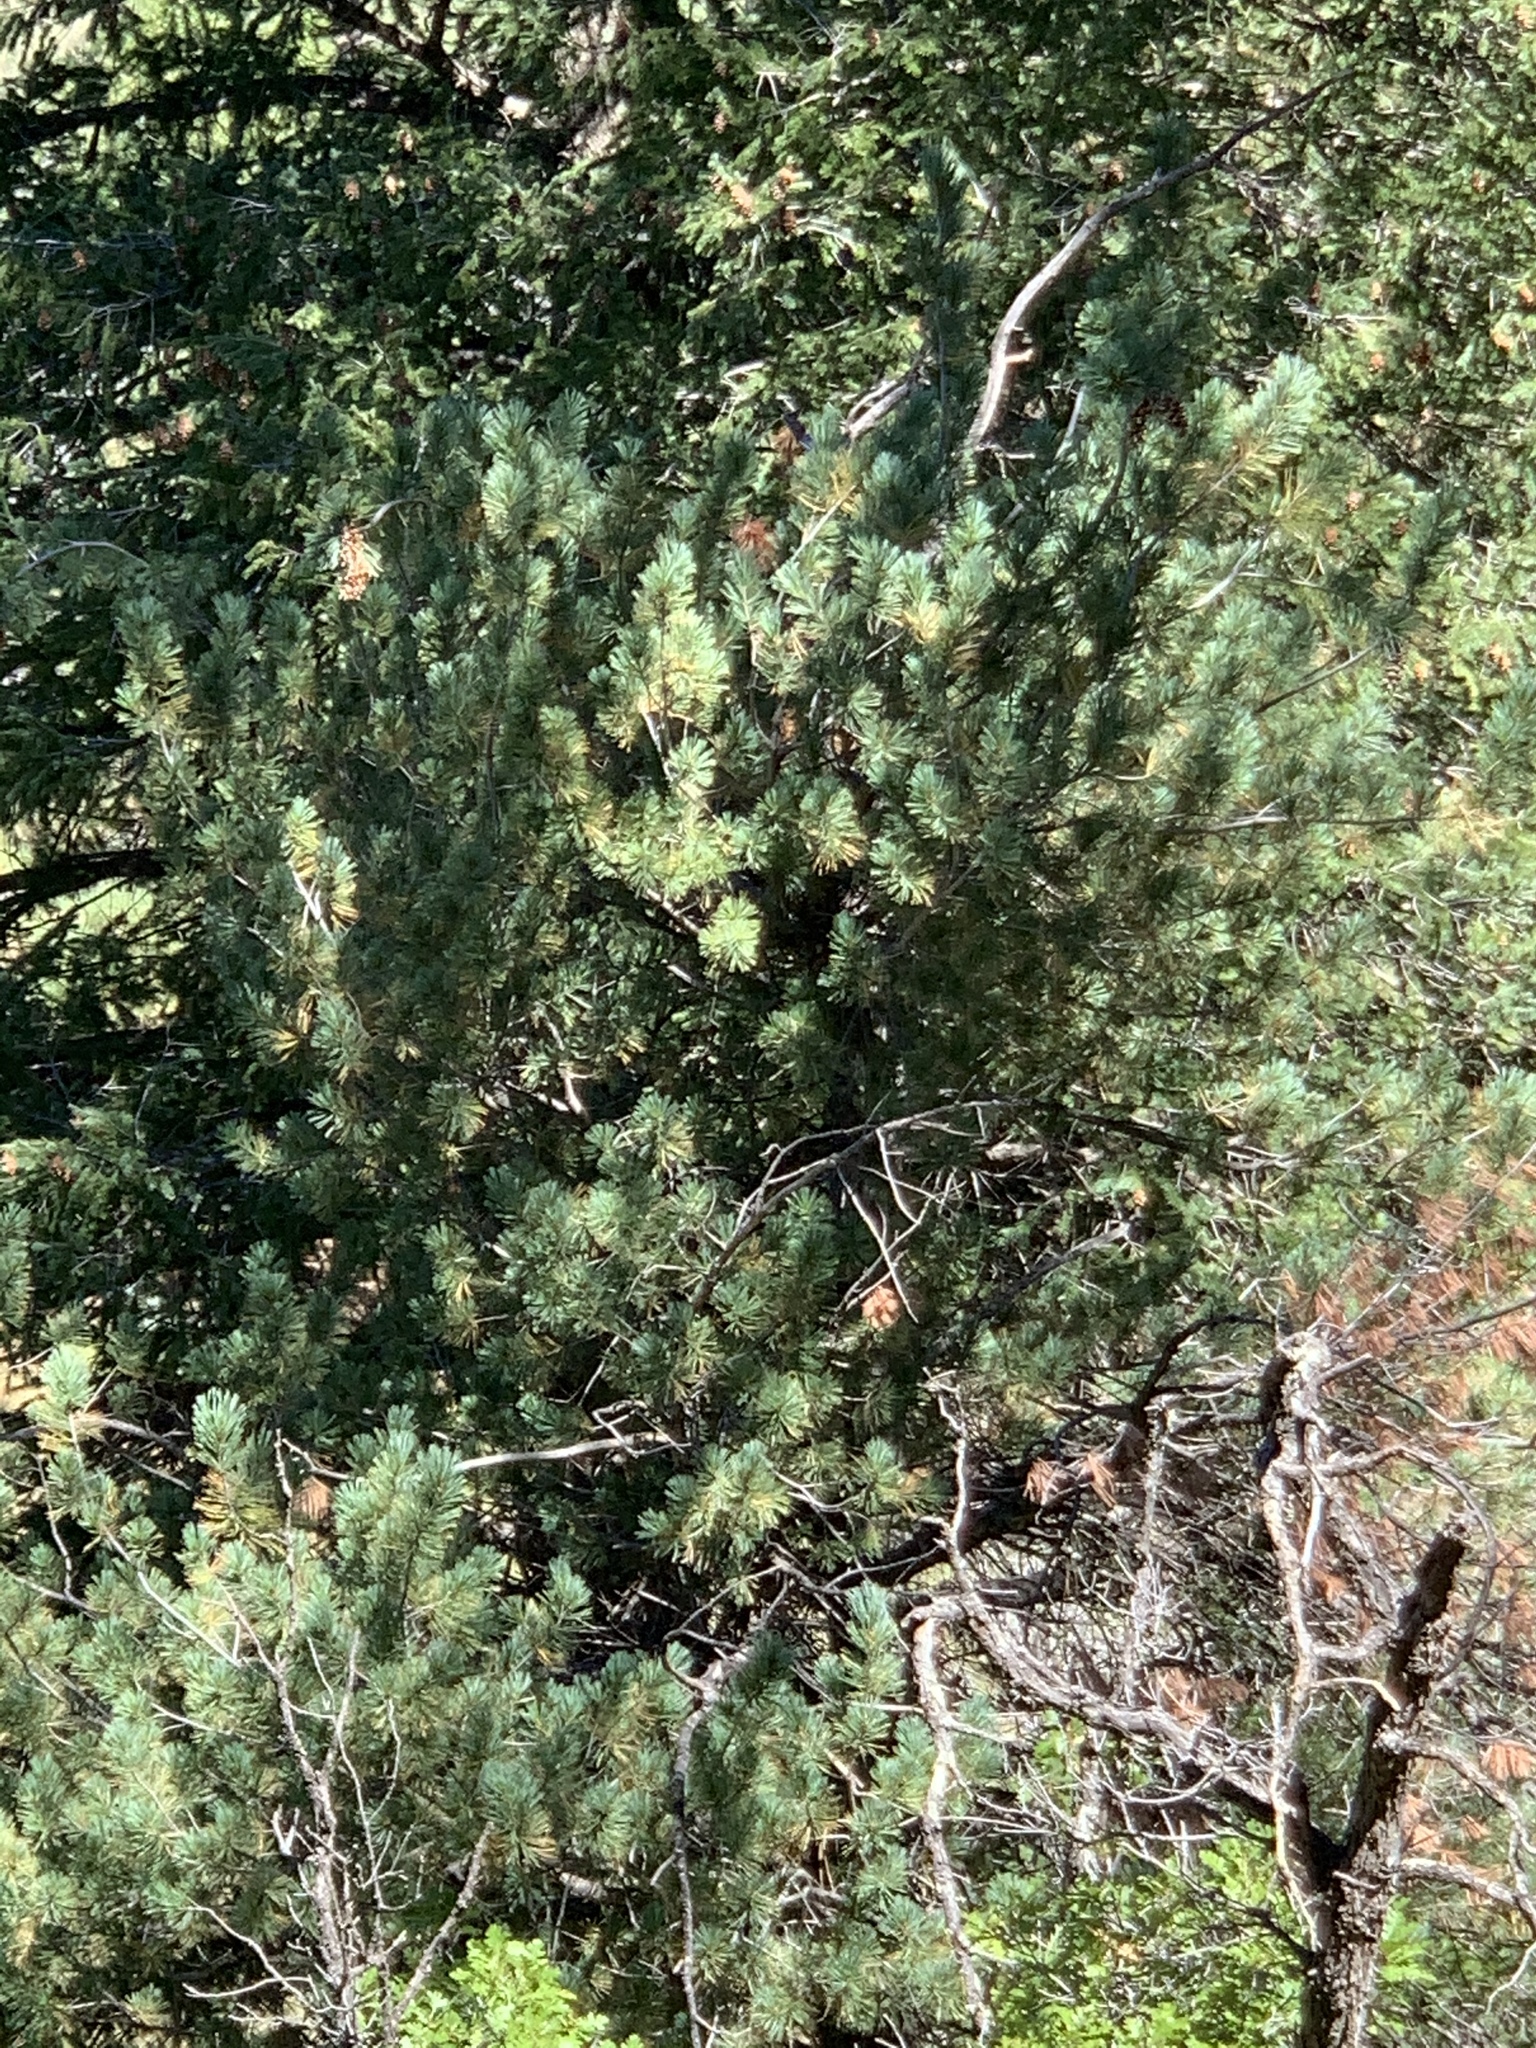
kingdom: Plantae
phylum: Tracheophyta
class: Pinopsida
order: Pinales
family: Pinaceae
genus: Pinus
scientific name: Pinus strobiformis
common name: Southwestern white pine
